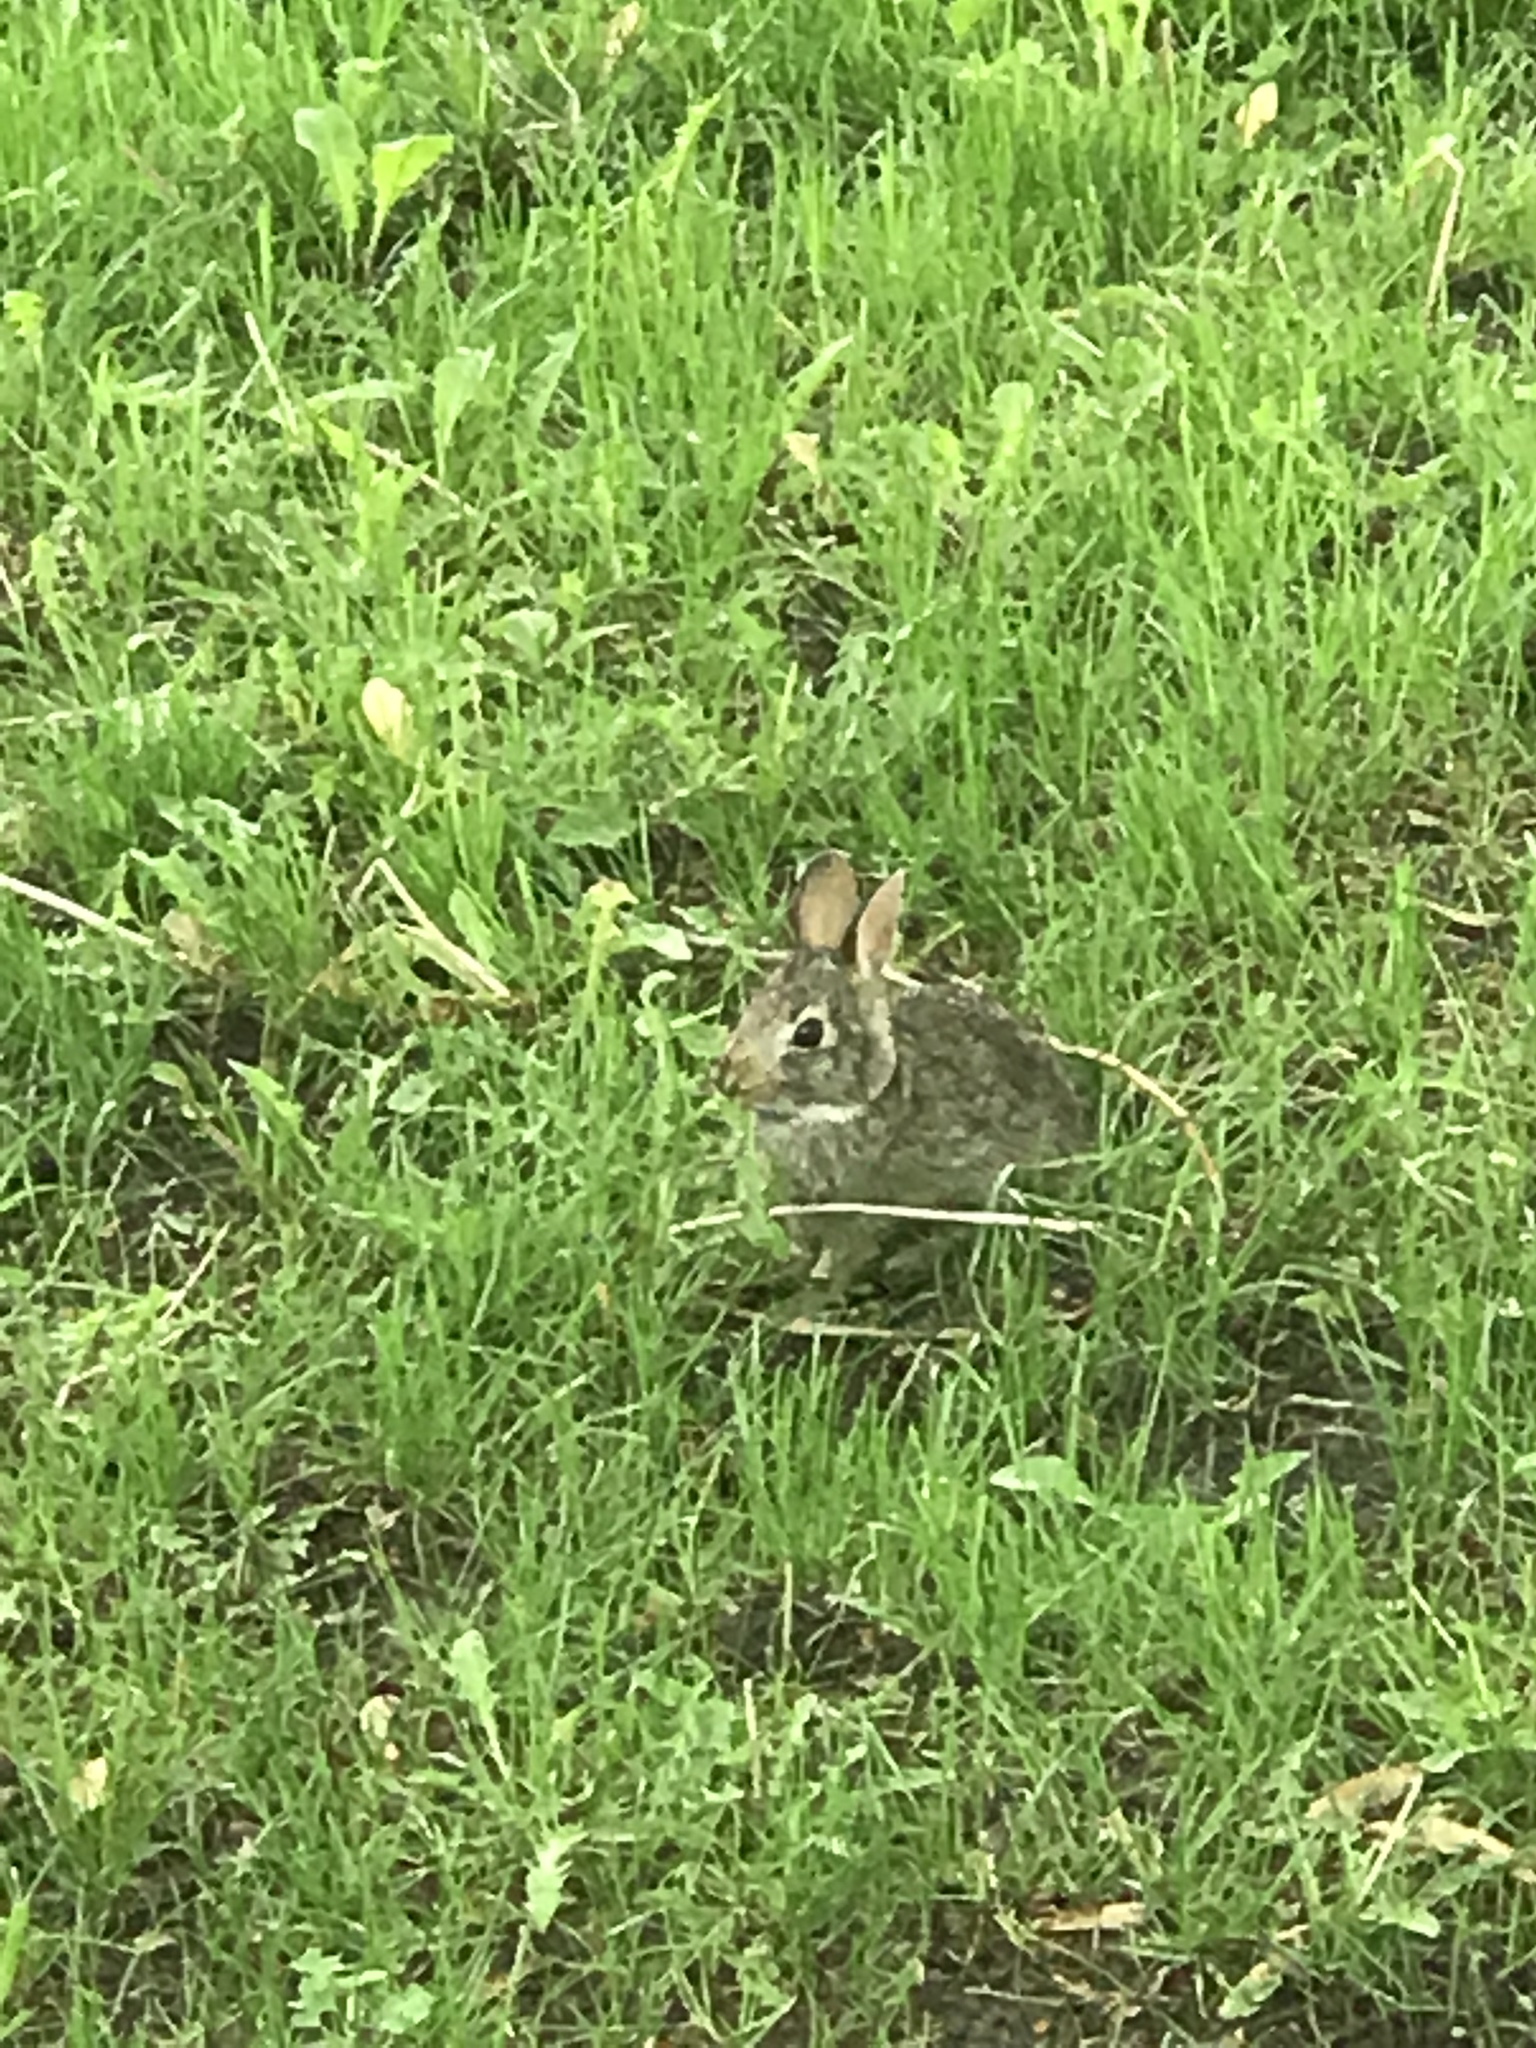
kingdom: Animalia
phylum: Chordata
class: Mammalia
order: Lagomorpha
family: Leporidae
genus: Sylvilagus
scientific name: Sylvilagus floridanus
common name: Eastern cottontail
